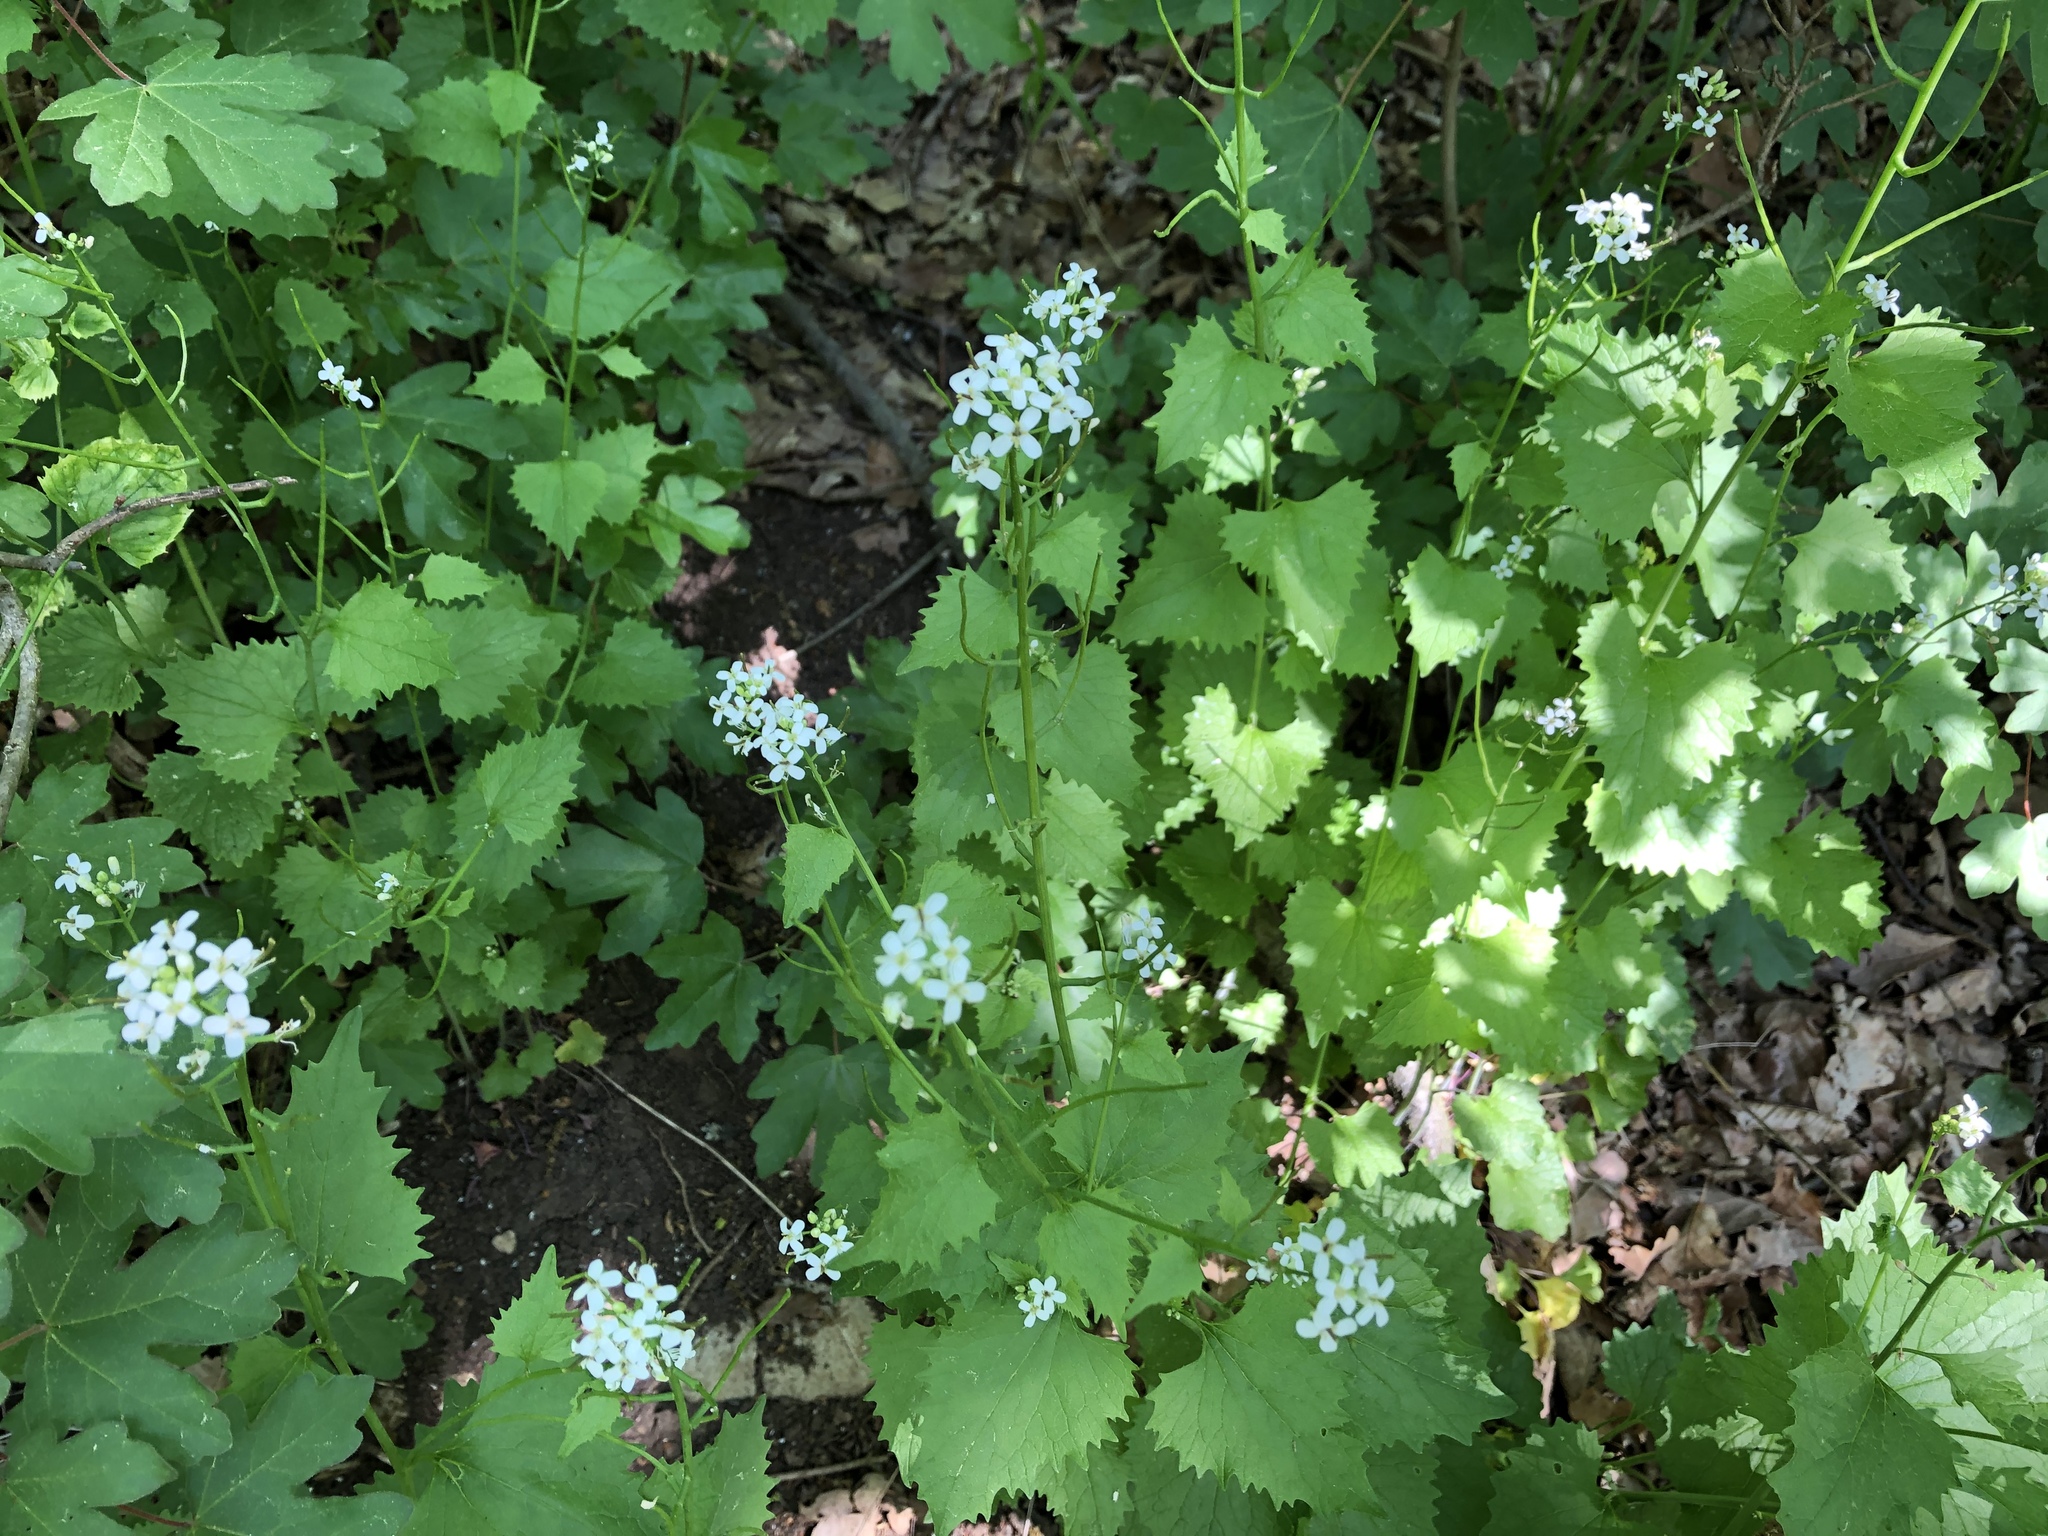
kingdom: Plantae
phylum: Tracheophyta
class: Magnoliopsida
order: Brassicales
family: Brassicaceae
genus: Alliaria
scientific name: Alliaria petiolata
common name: Garlic mustard
